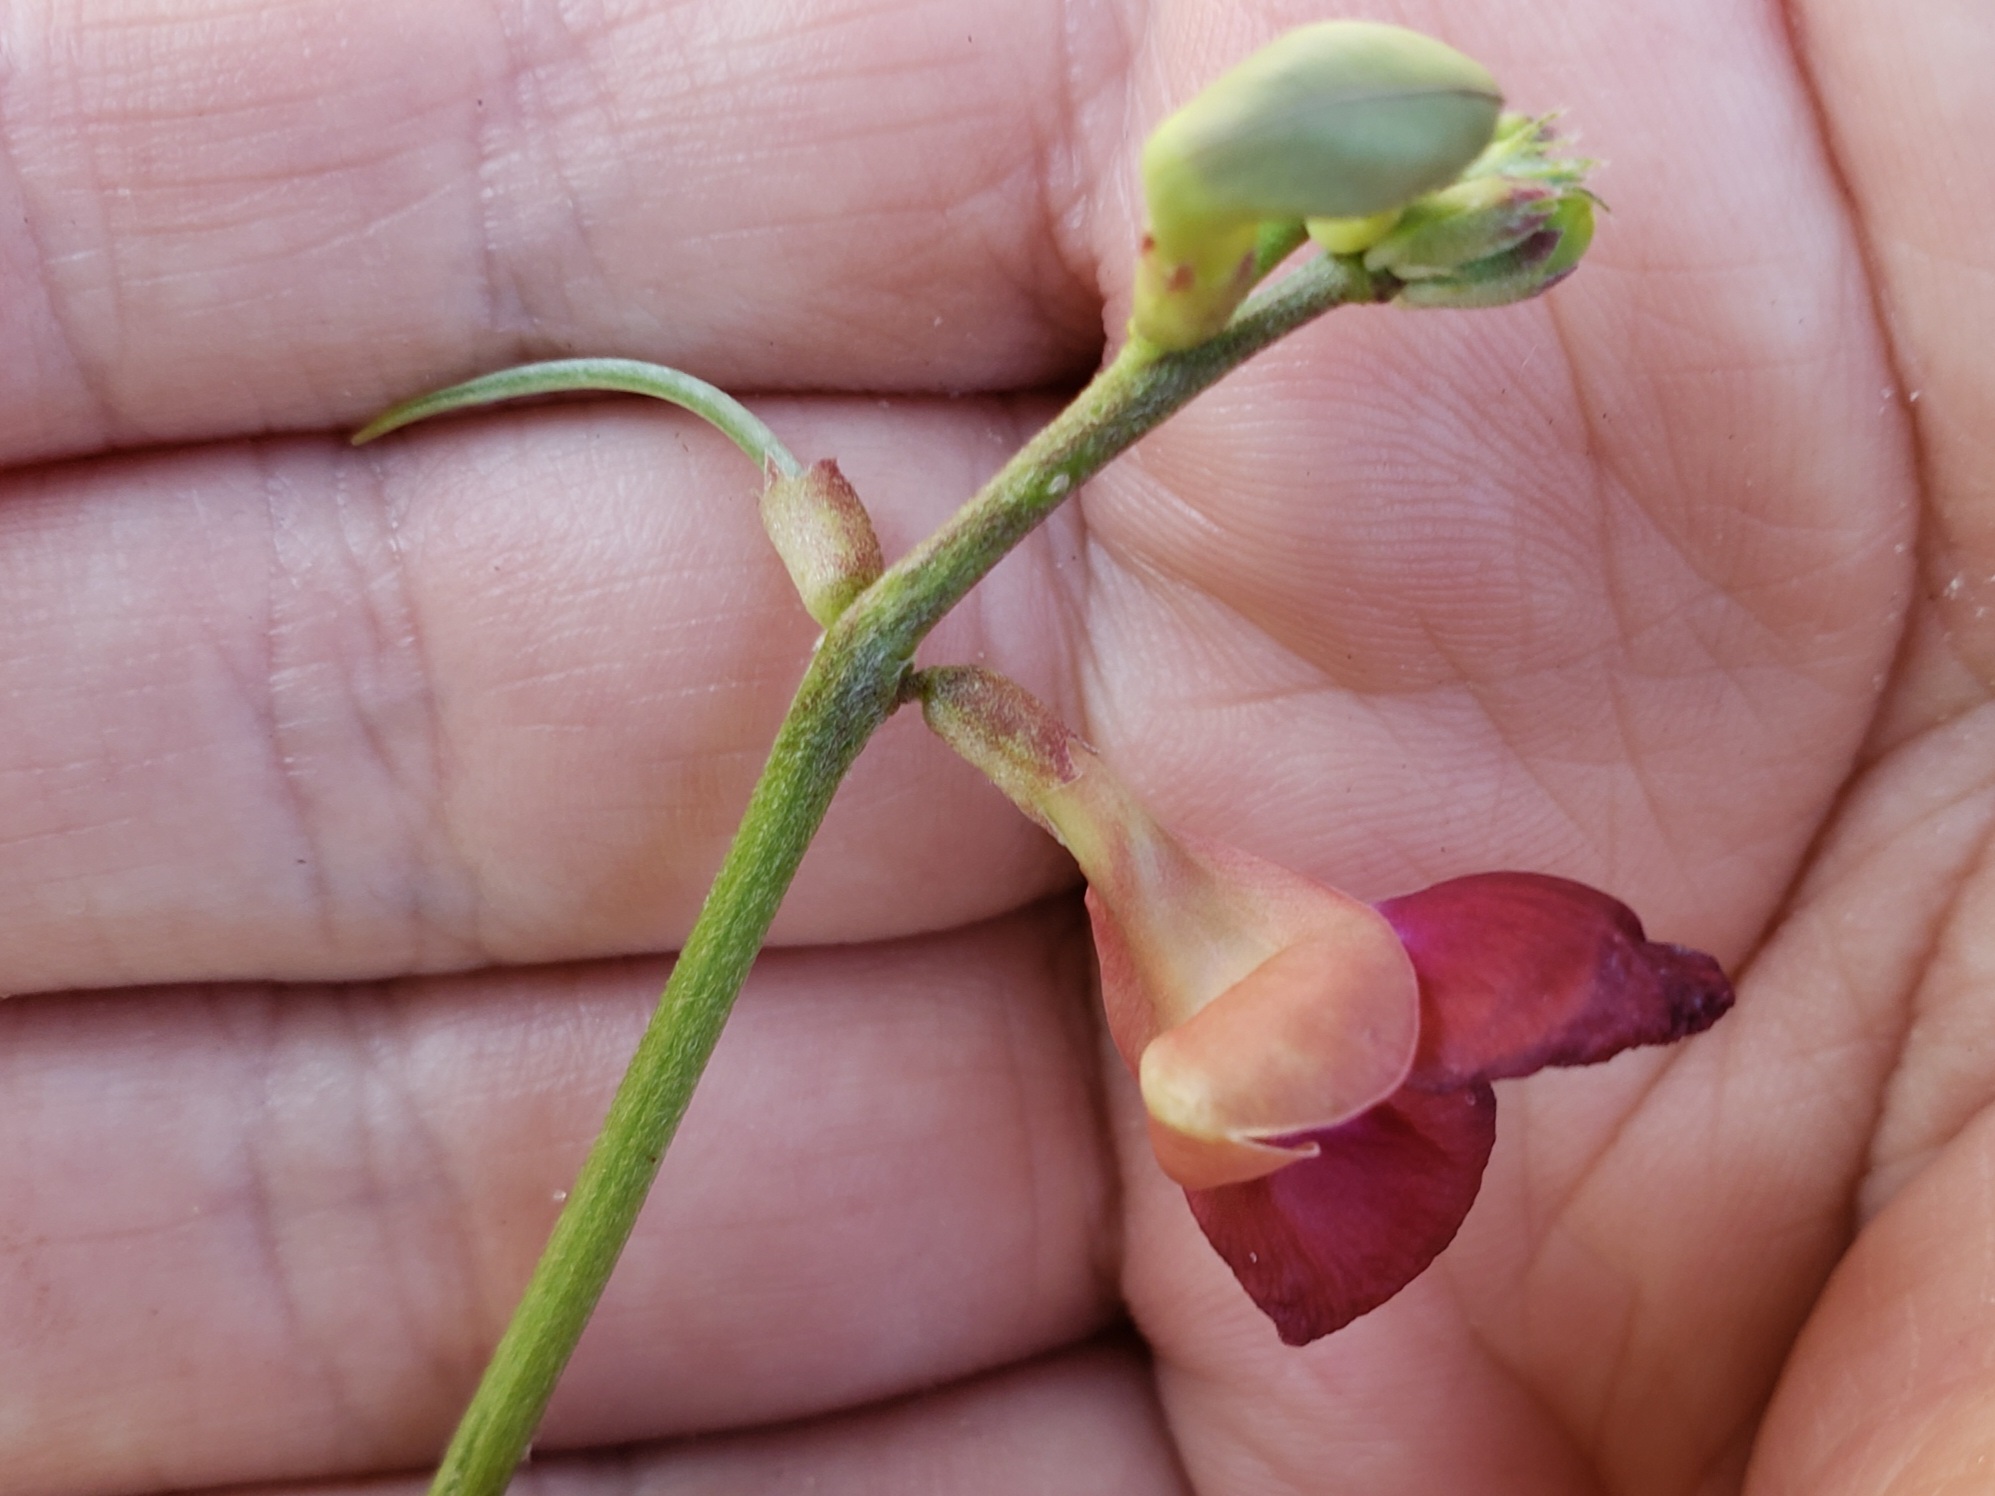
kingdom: Plantae
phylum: Tracheophyta
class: Magnoliopsida
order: Fabales
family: Fabaceae
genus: Macroptilium
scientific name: Macroptilium lathyroides
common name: Wild bushbean
